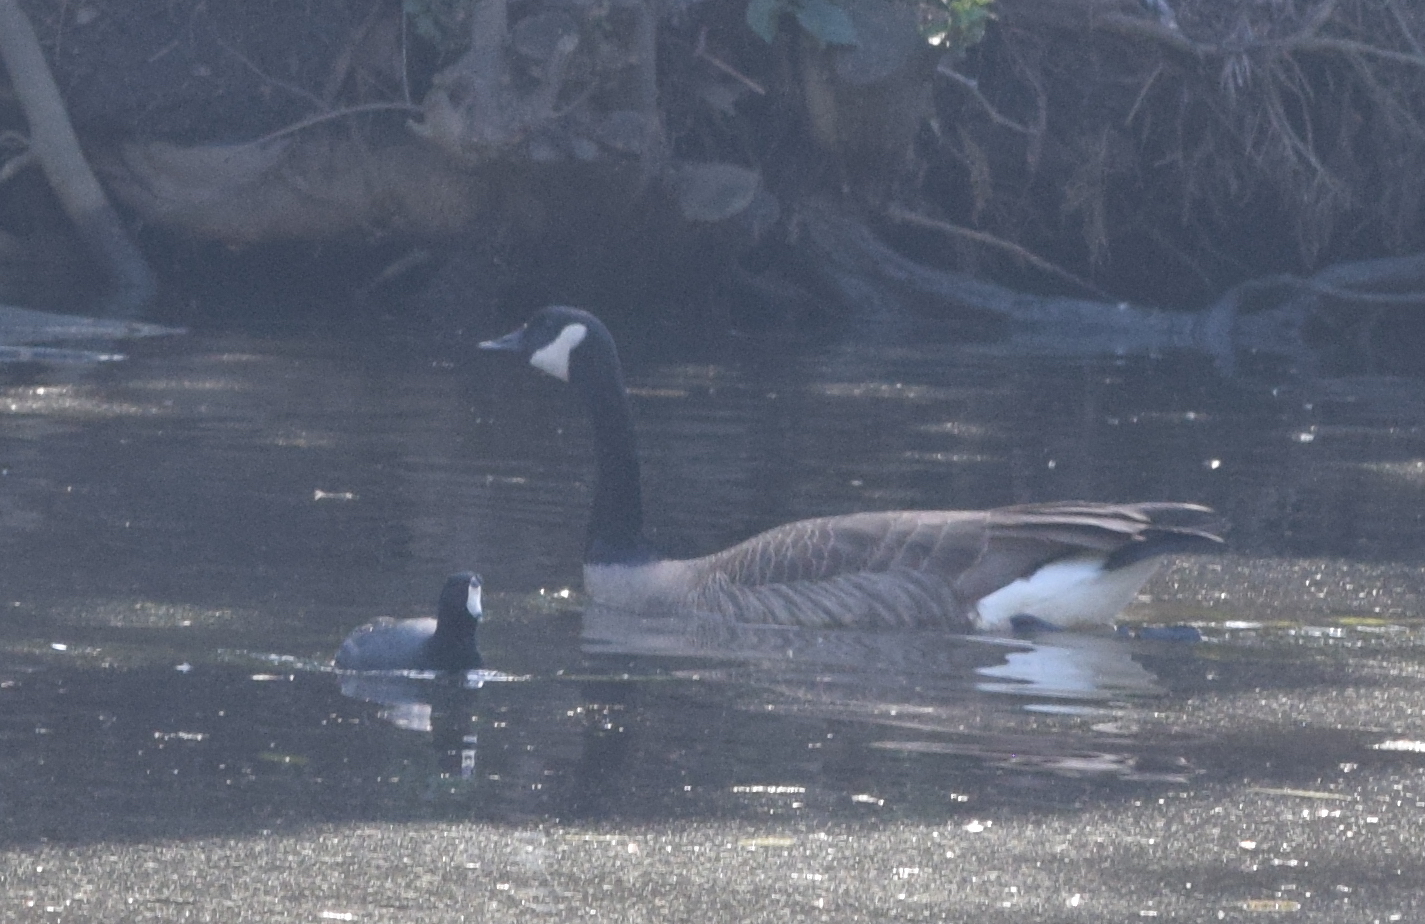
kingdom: Animalia
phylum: Chordata
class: Aves
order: Gruiformes
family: Rallidae
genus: Fulica
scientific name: Fulica americana
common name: American coot
